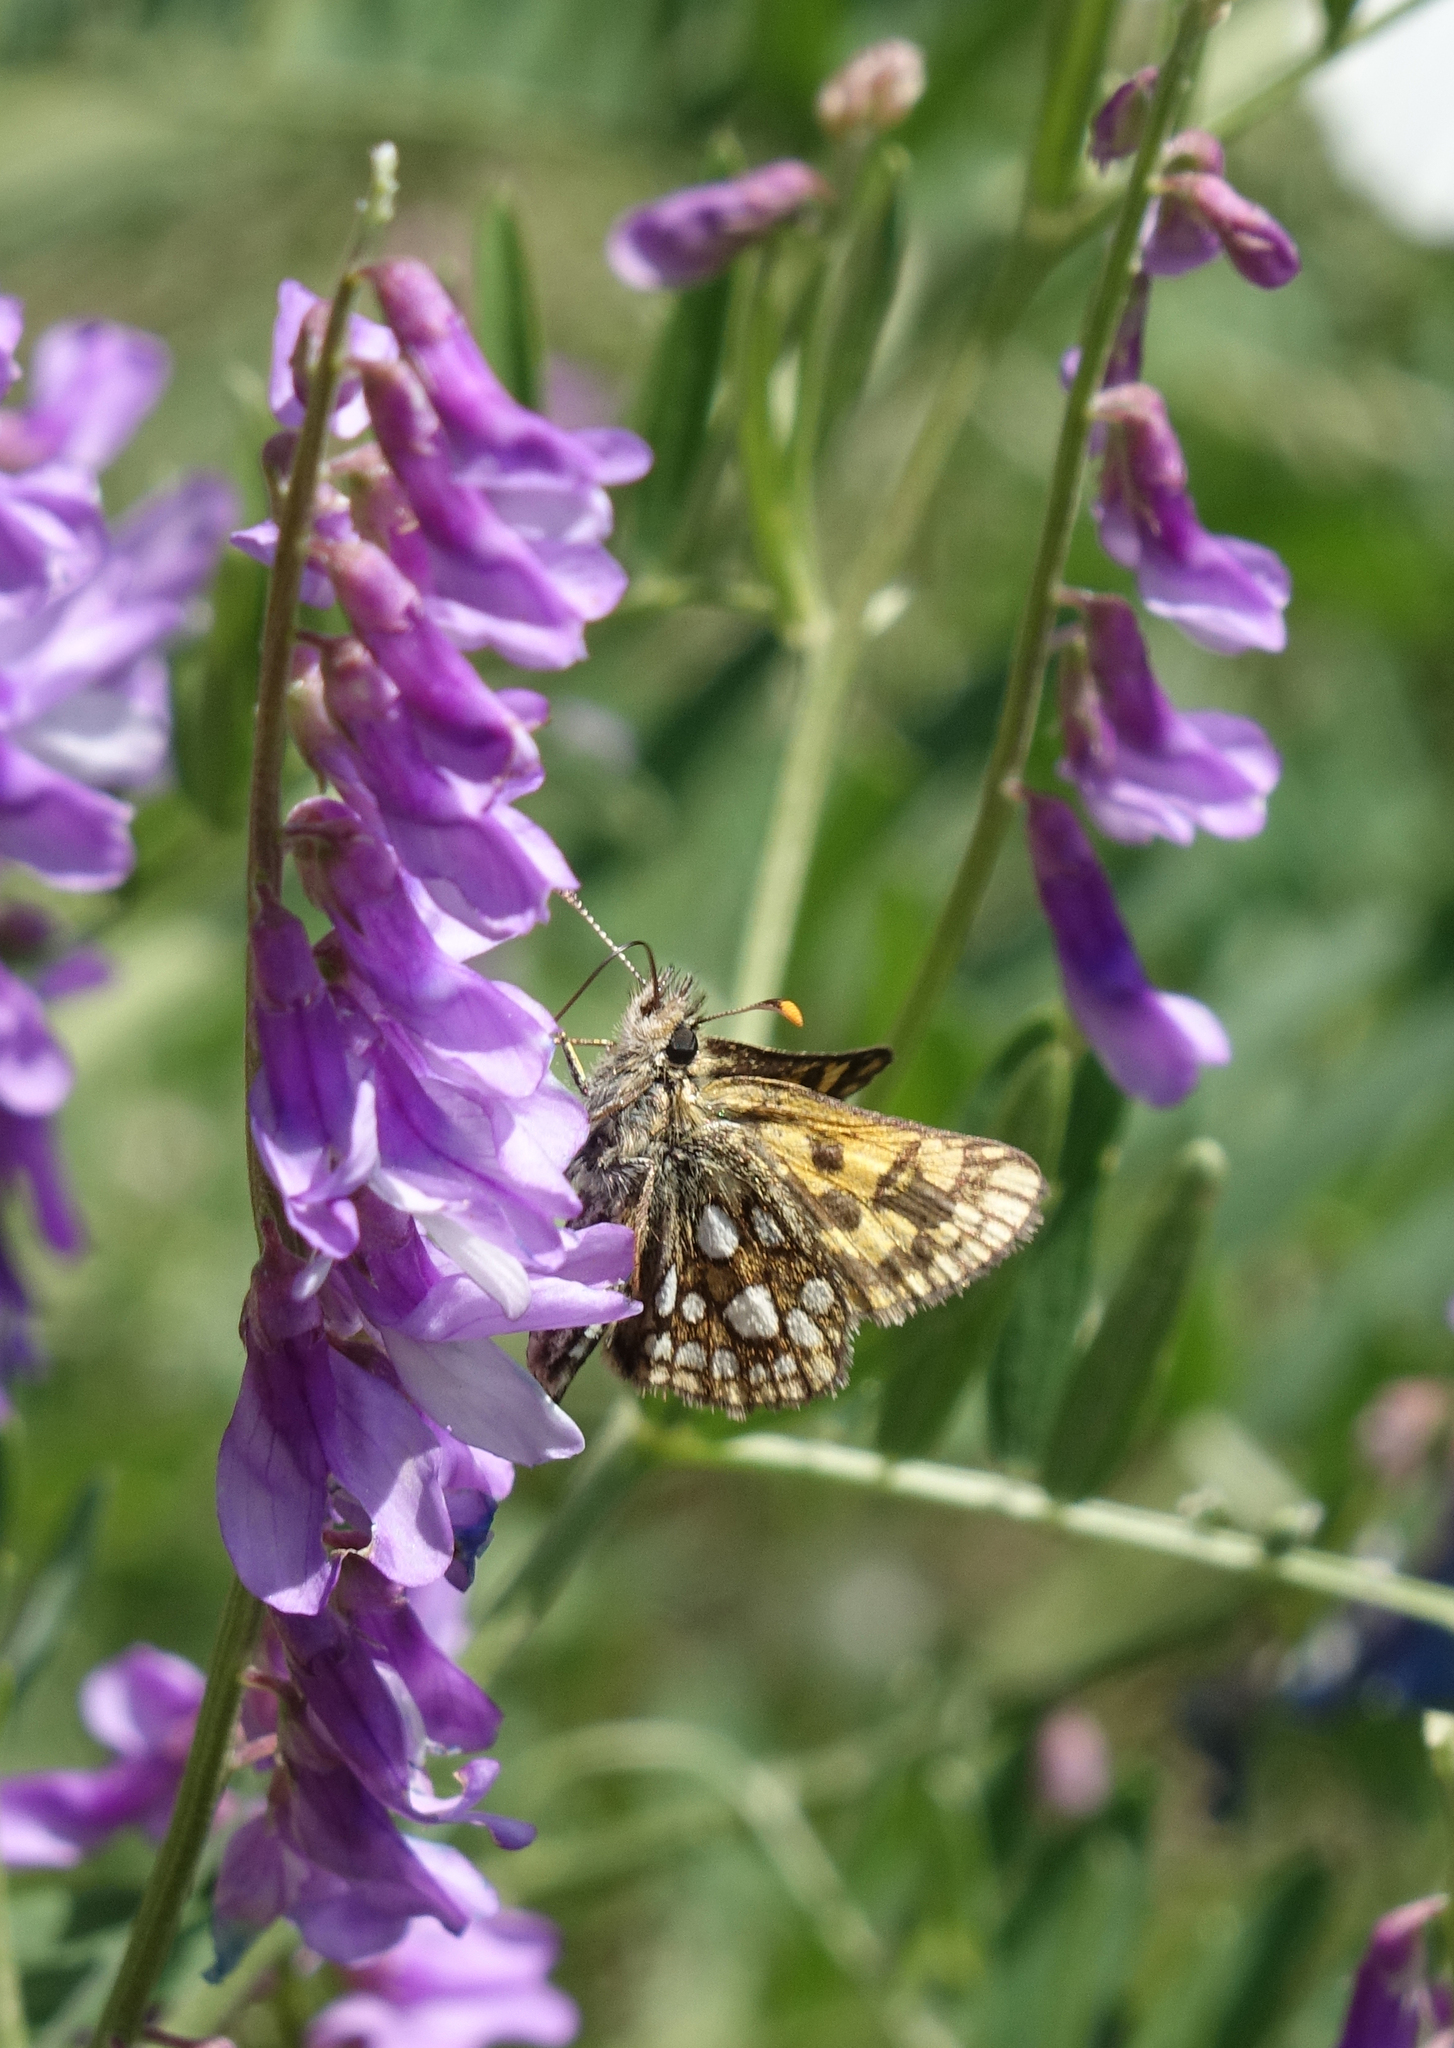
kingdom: Animalia
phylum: Arthropoda
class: Insecta
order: Lepidoptera
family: Hesperiidae
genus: Carterocephalus
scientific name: Carterocephalus palaemon
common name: Chequered skipper
